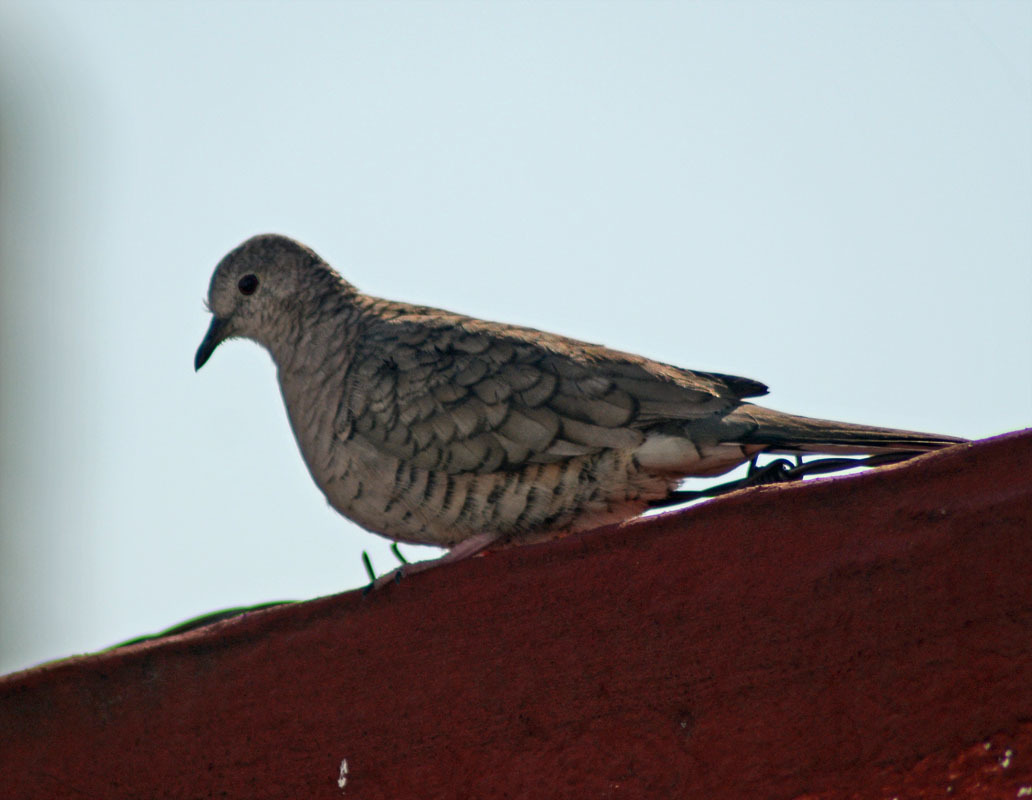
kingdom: Animalia
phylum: Chordata
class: Aves
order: Columbiformes
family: Columbidae
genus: Columbina
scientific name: Columbina inca
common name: Inca dove
